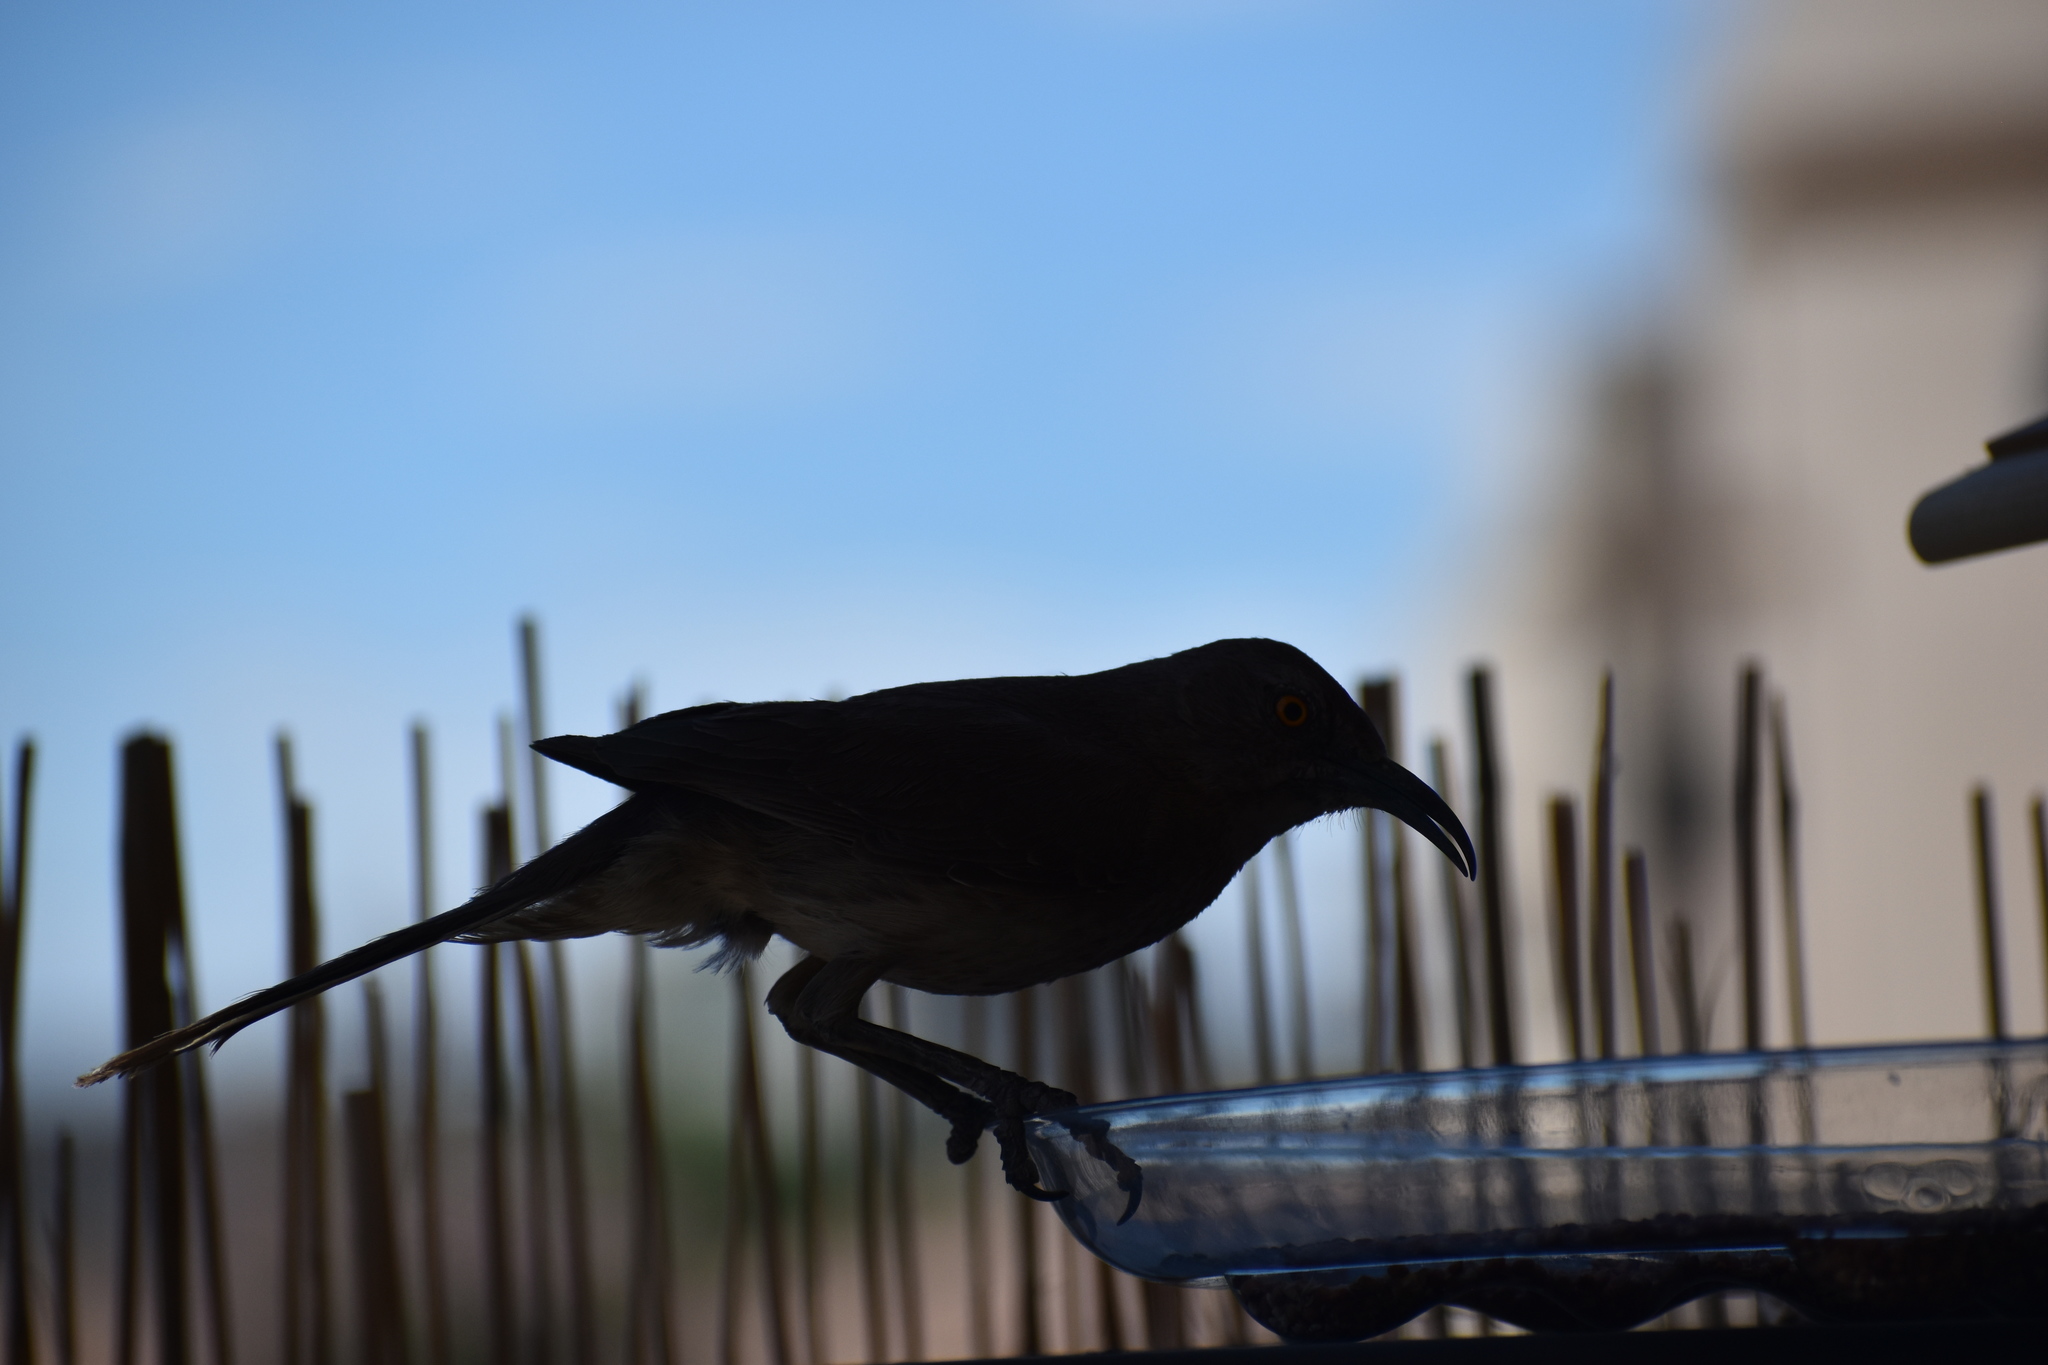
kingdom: Animalia
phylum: Chordata
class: Aves
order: Passeriformes
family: Mimidae
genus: Toxostoma
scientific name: Toxostoma curvirostre
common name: Curve-billed thrasher
